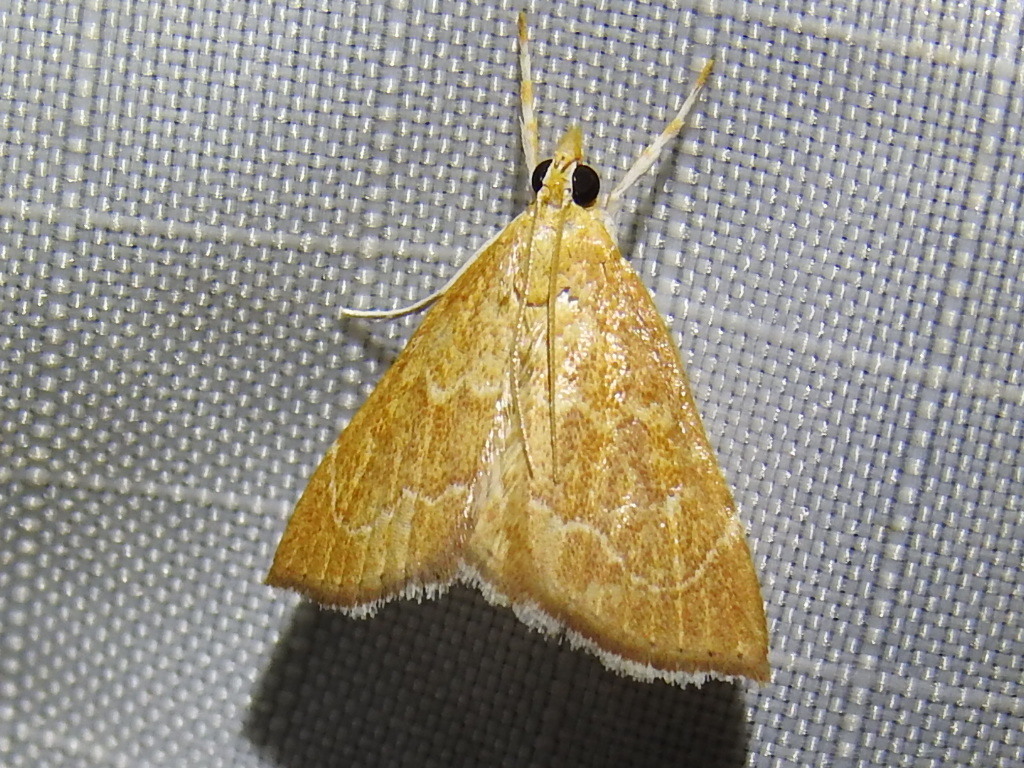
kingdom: Animalia
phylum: Arthropoda
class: Insecta
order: Lepidoptera
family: Crambidae
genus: Glaphyria
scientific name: Glaphyria invisalis
